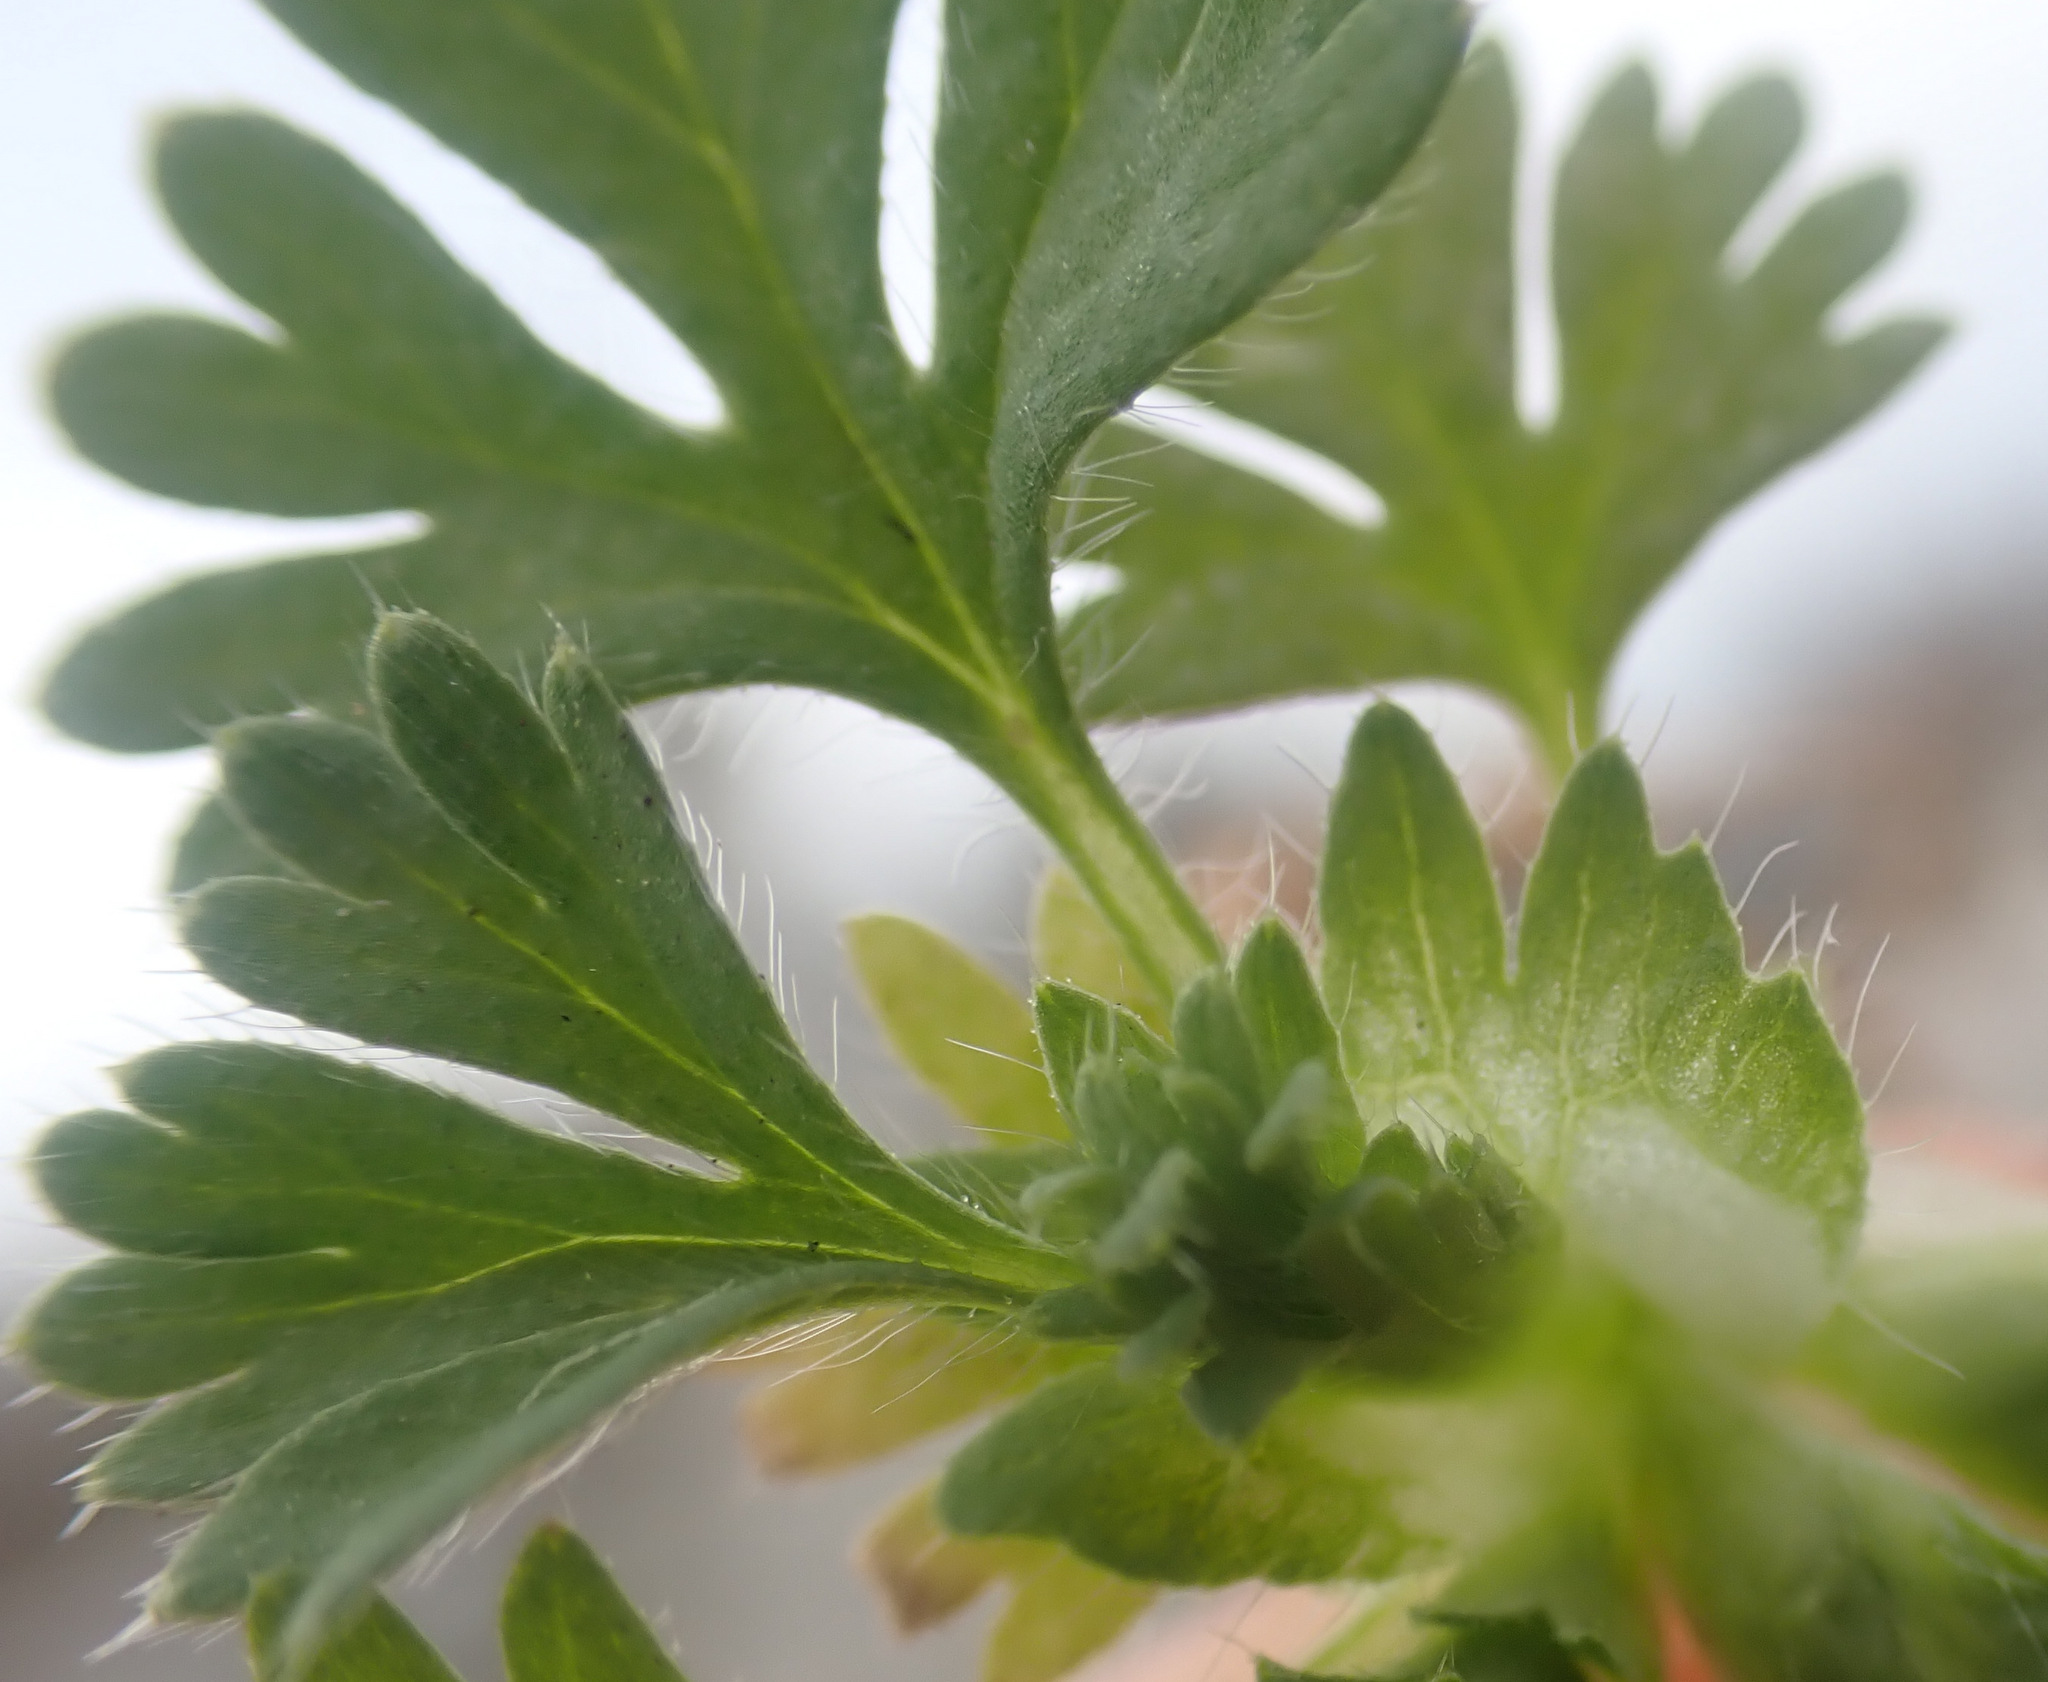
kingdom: Plantae
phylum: Tracheophyta
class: Magnoliopsida
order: Rosales
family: Rosaceae
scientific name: Rosaceae
